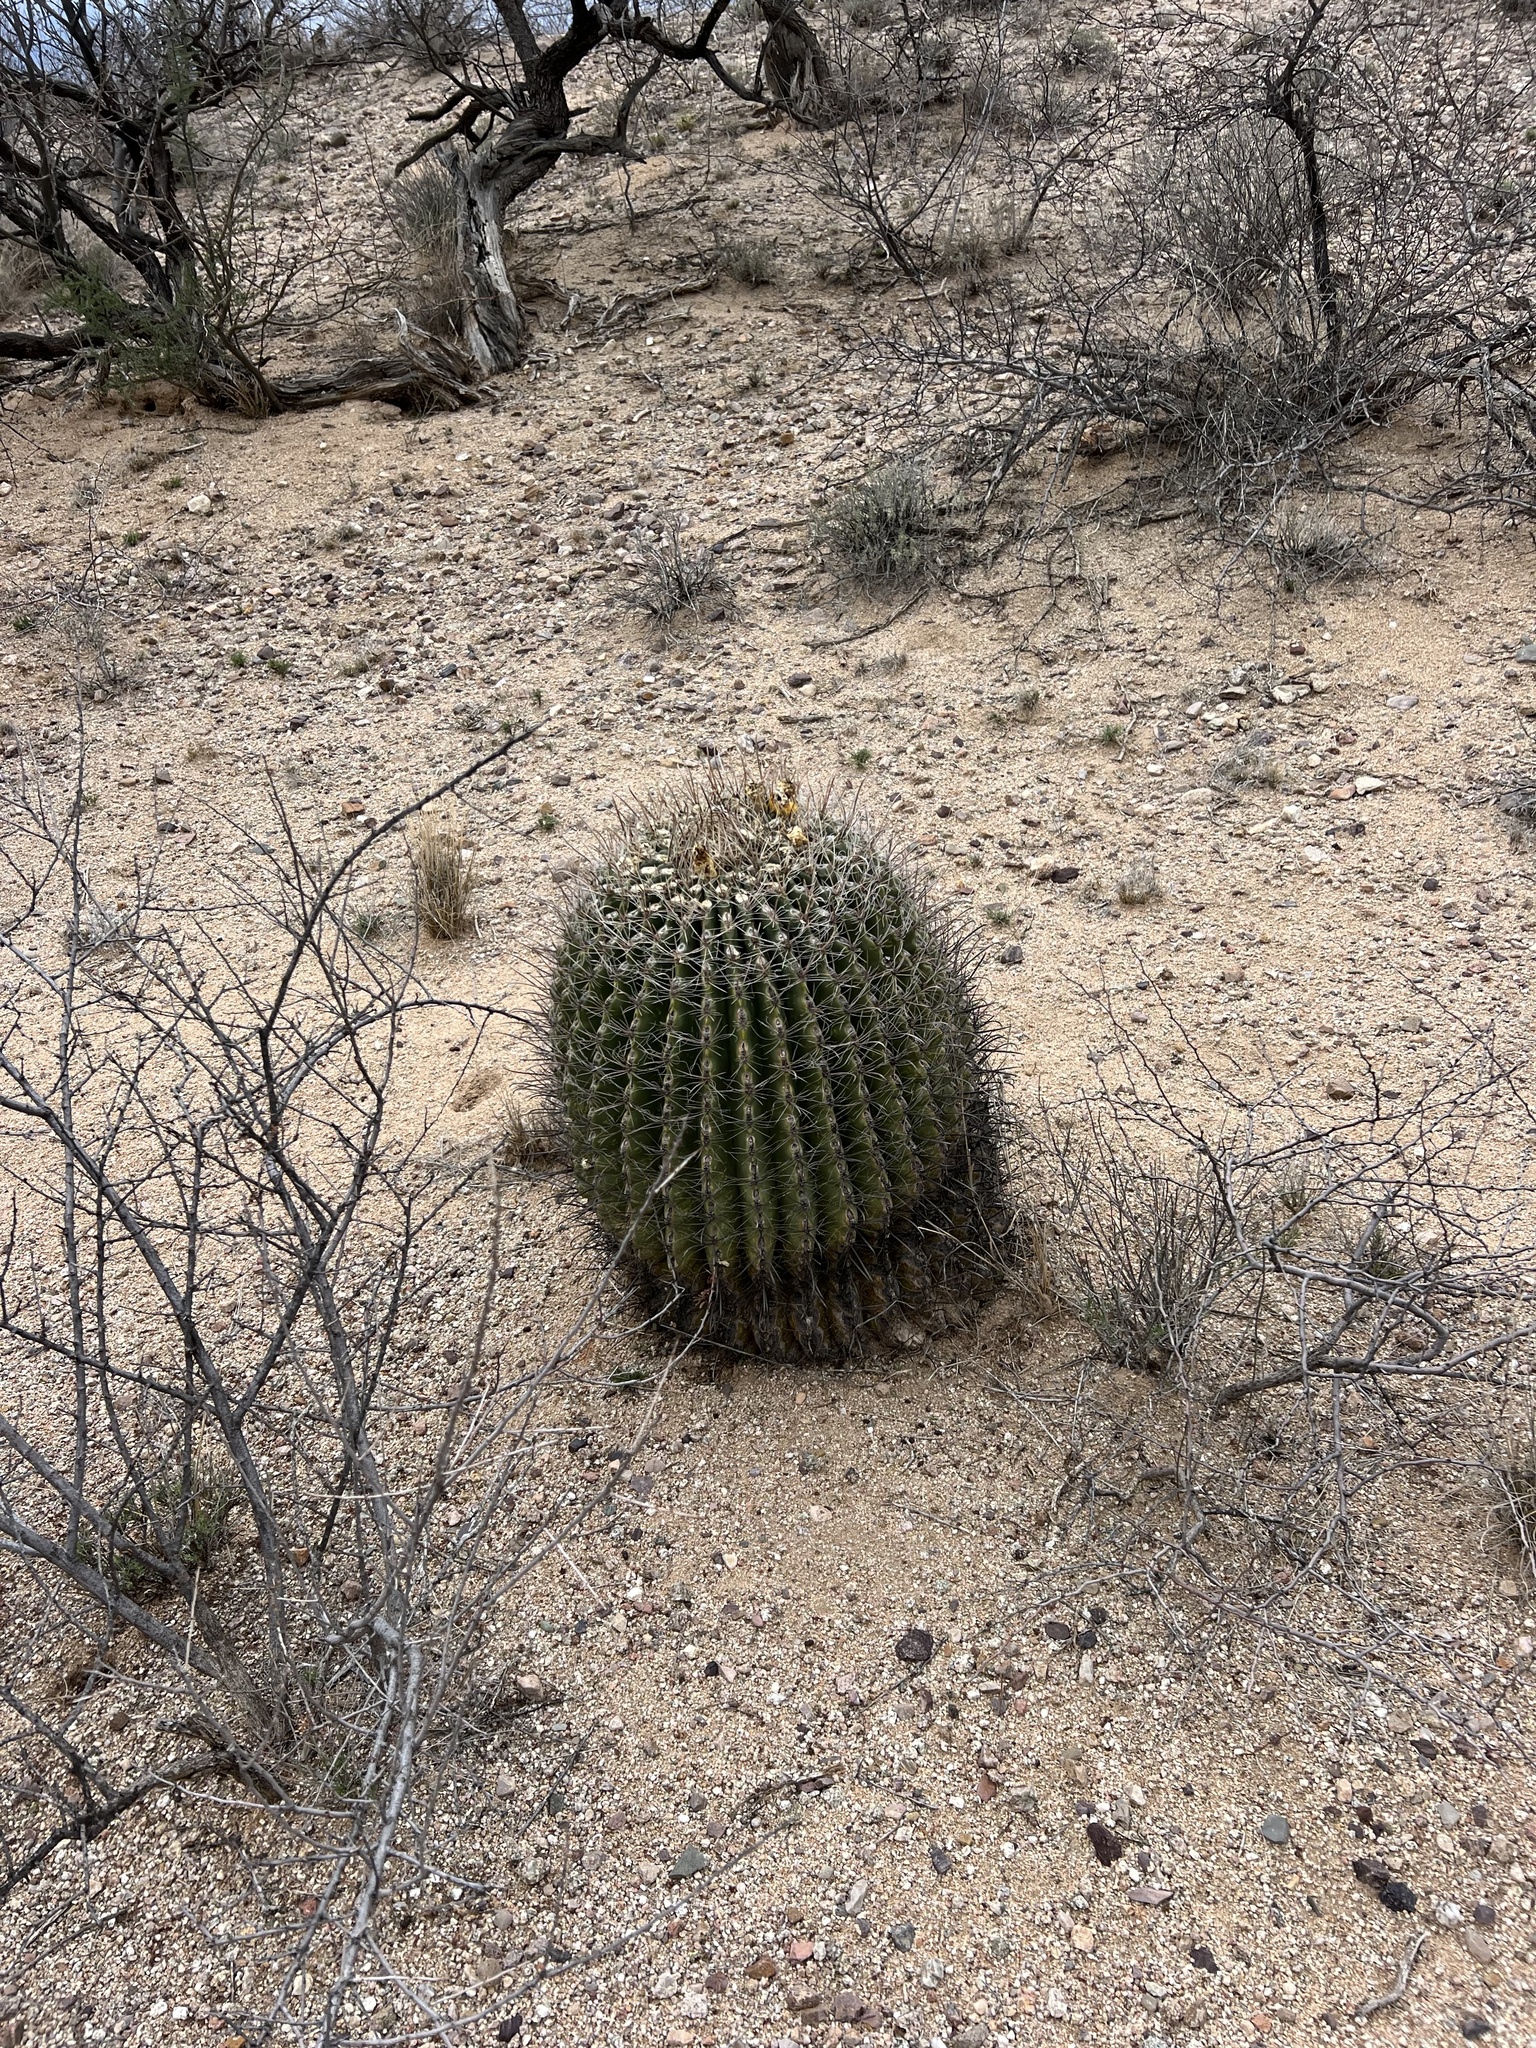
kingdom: Plantae
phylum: Tracheophyta
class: Magnoliopsida
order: Caryophyllales
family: Cactaceae
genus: Ferocactus
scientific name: Ferocactus wislizeni
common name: Candy barrel cactus
